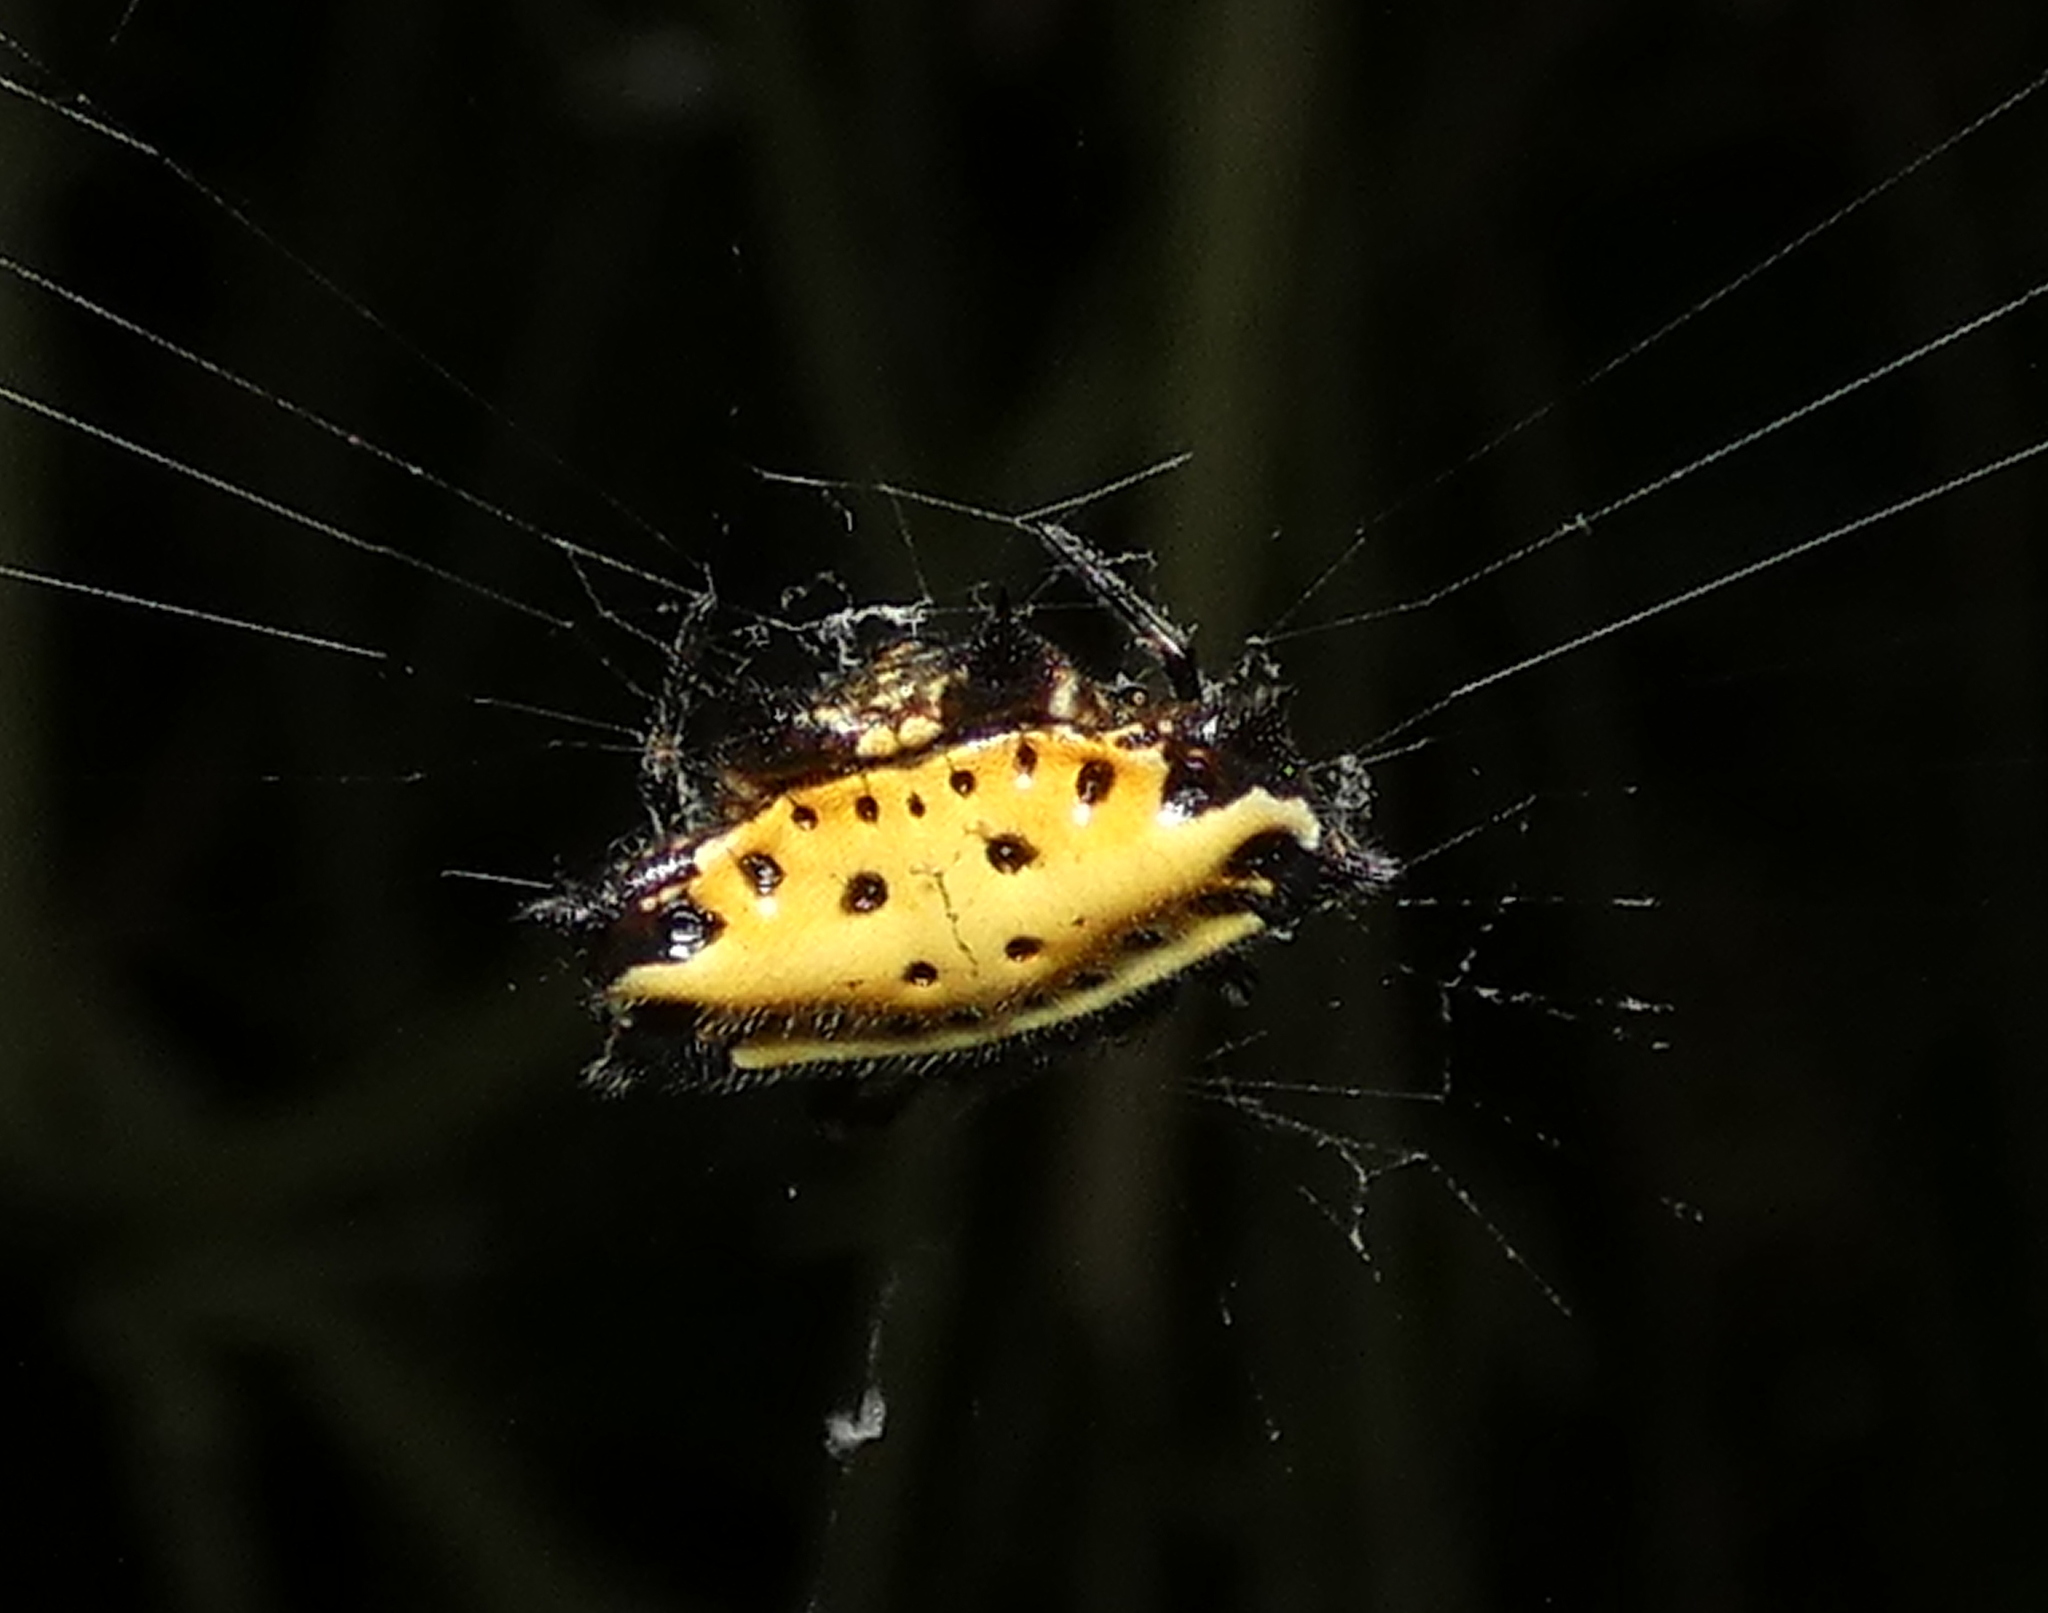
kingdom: Animalia
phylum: Arthropoda
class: Arachnida
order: Araneae
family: Araneidae
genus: Gasteracantha
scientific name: Gasteracantha cancriformis
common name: Orb weavers
